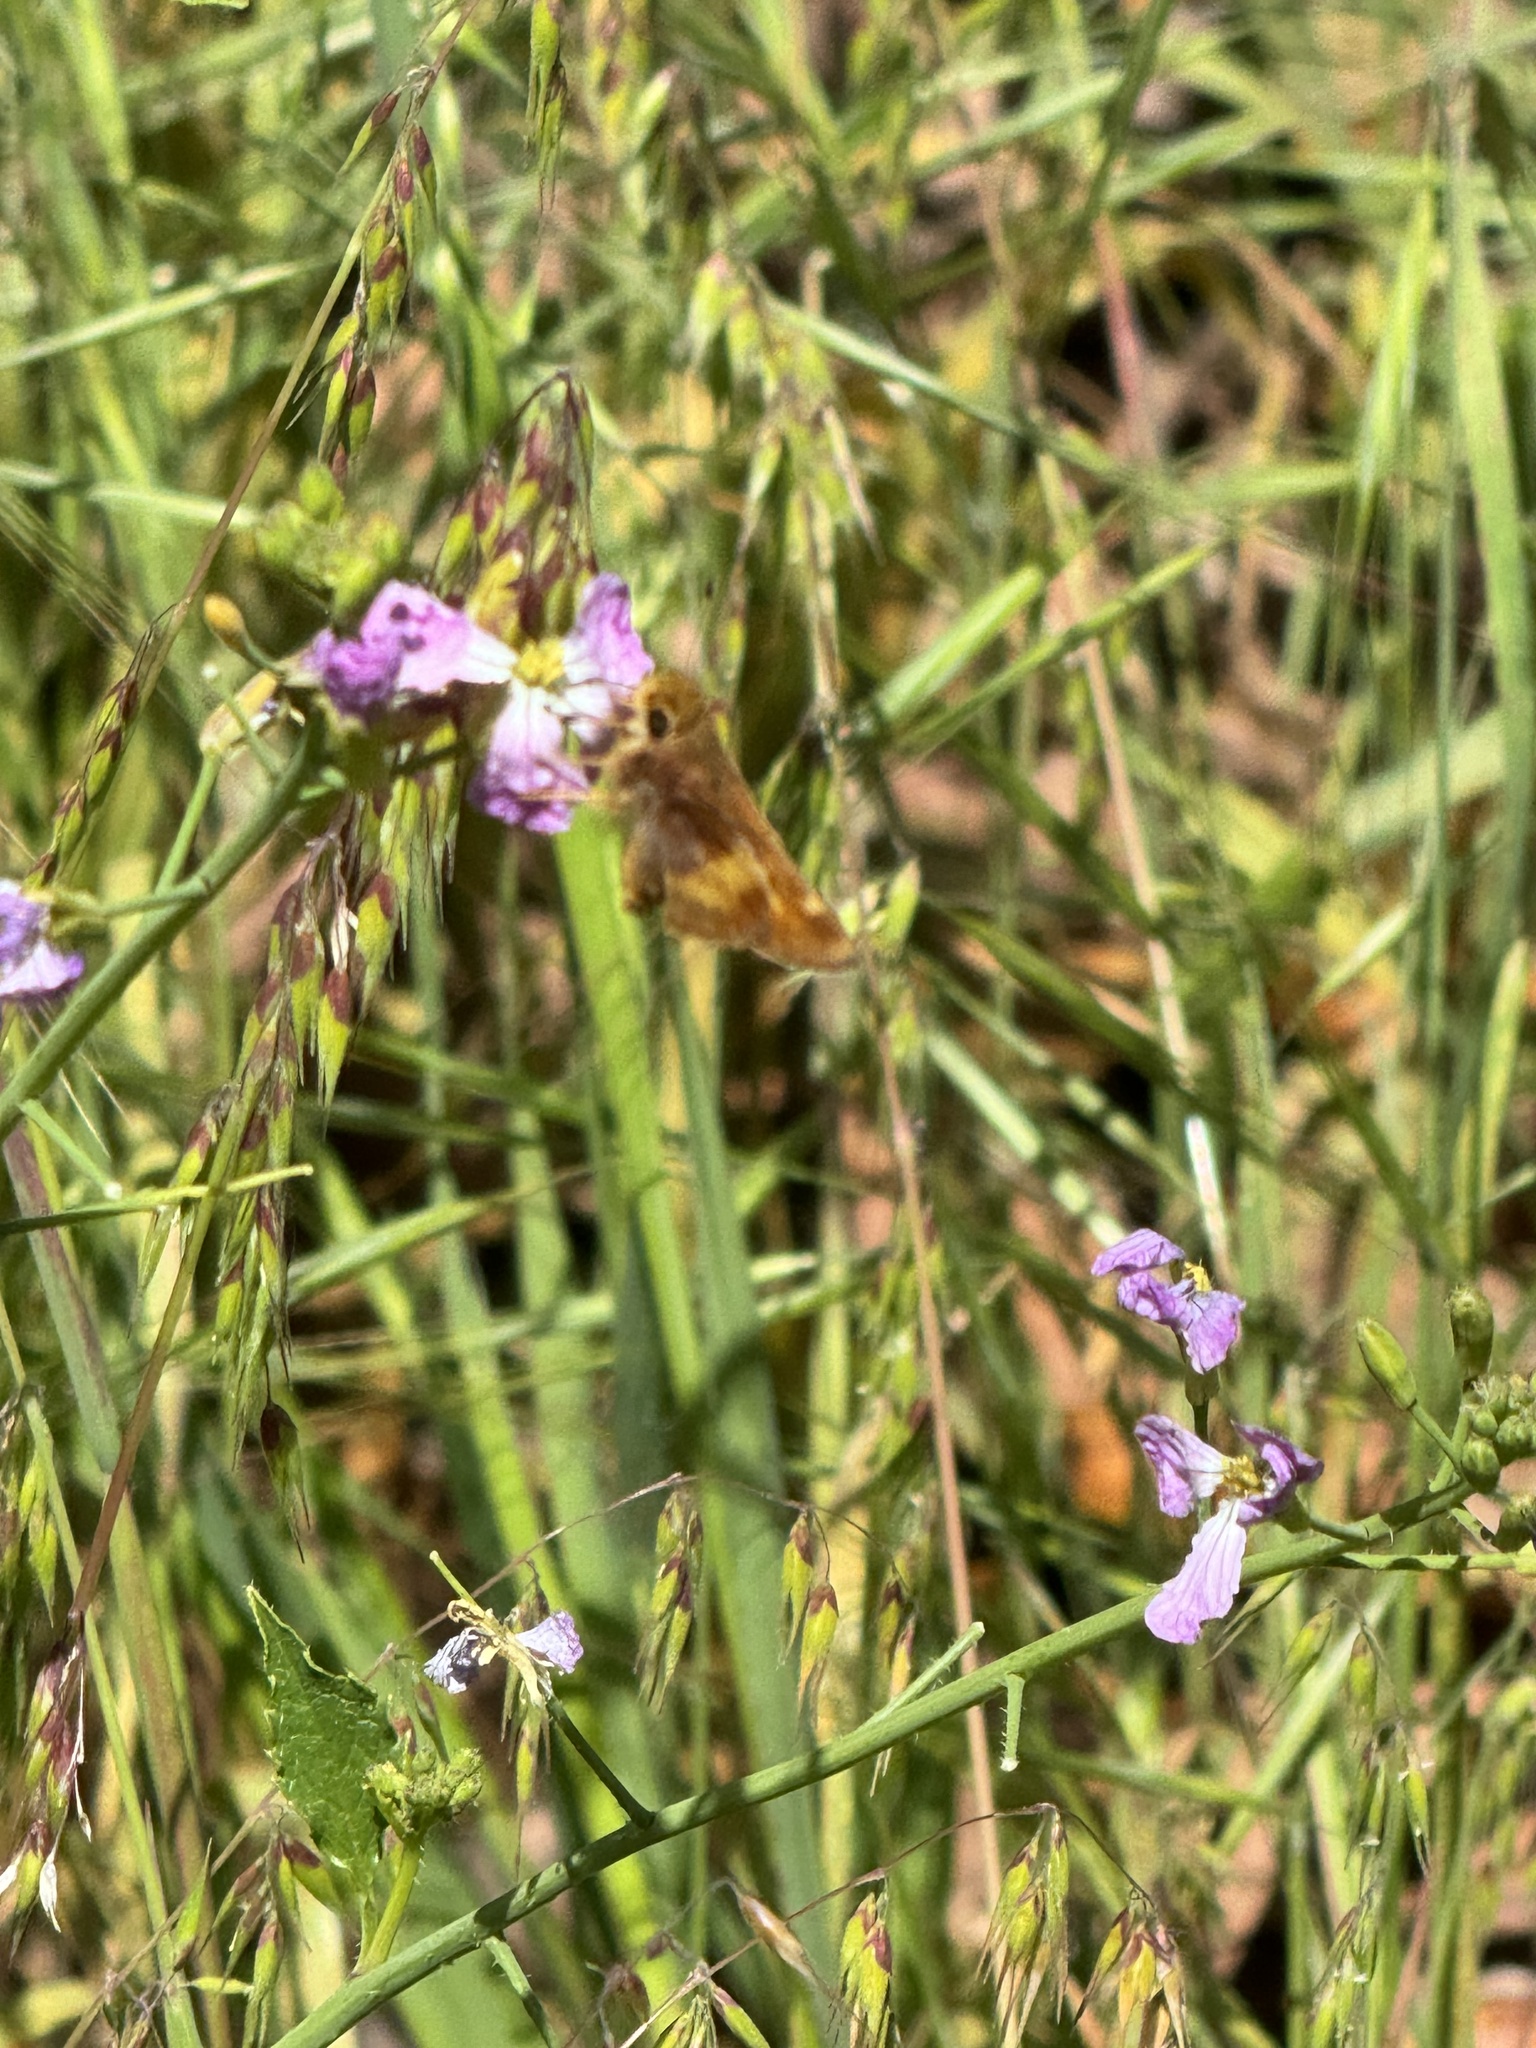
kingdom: Animalia
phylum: Arthropoda
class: Insecta
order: Lepidoptera
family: Hesperiidae
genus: Lon
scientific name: Lon melane
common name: Umber skipper
